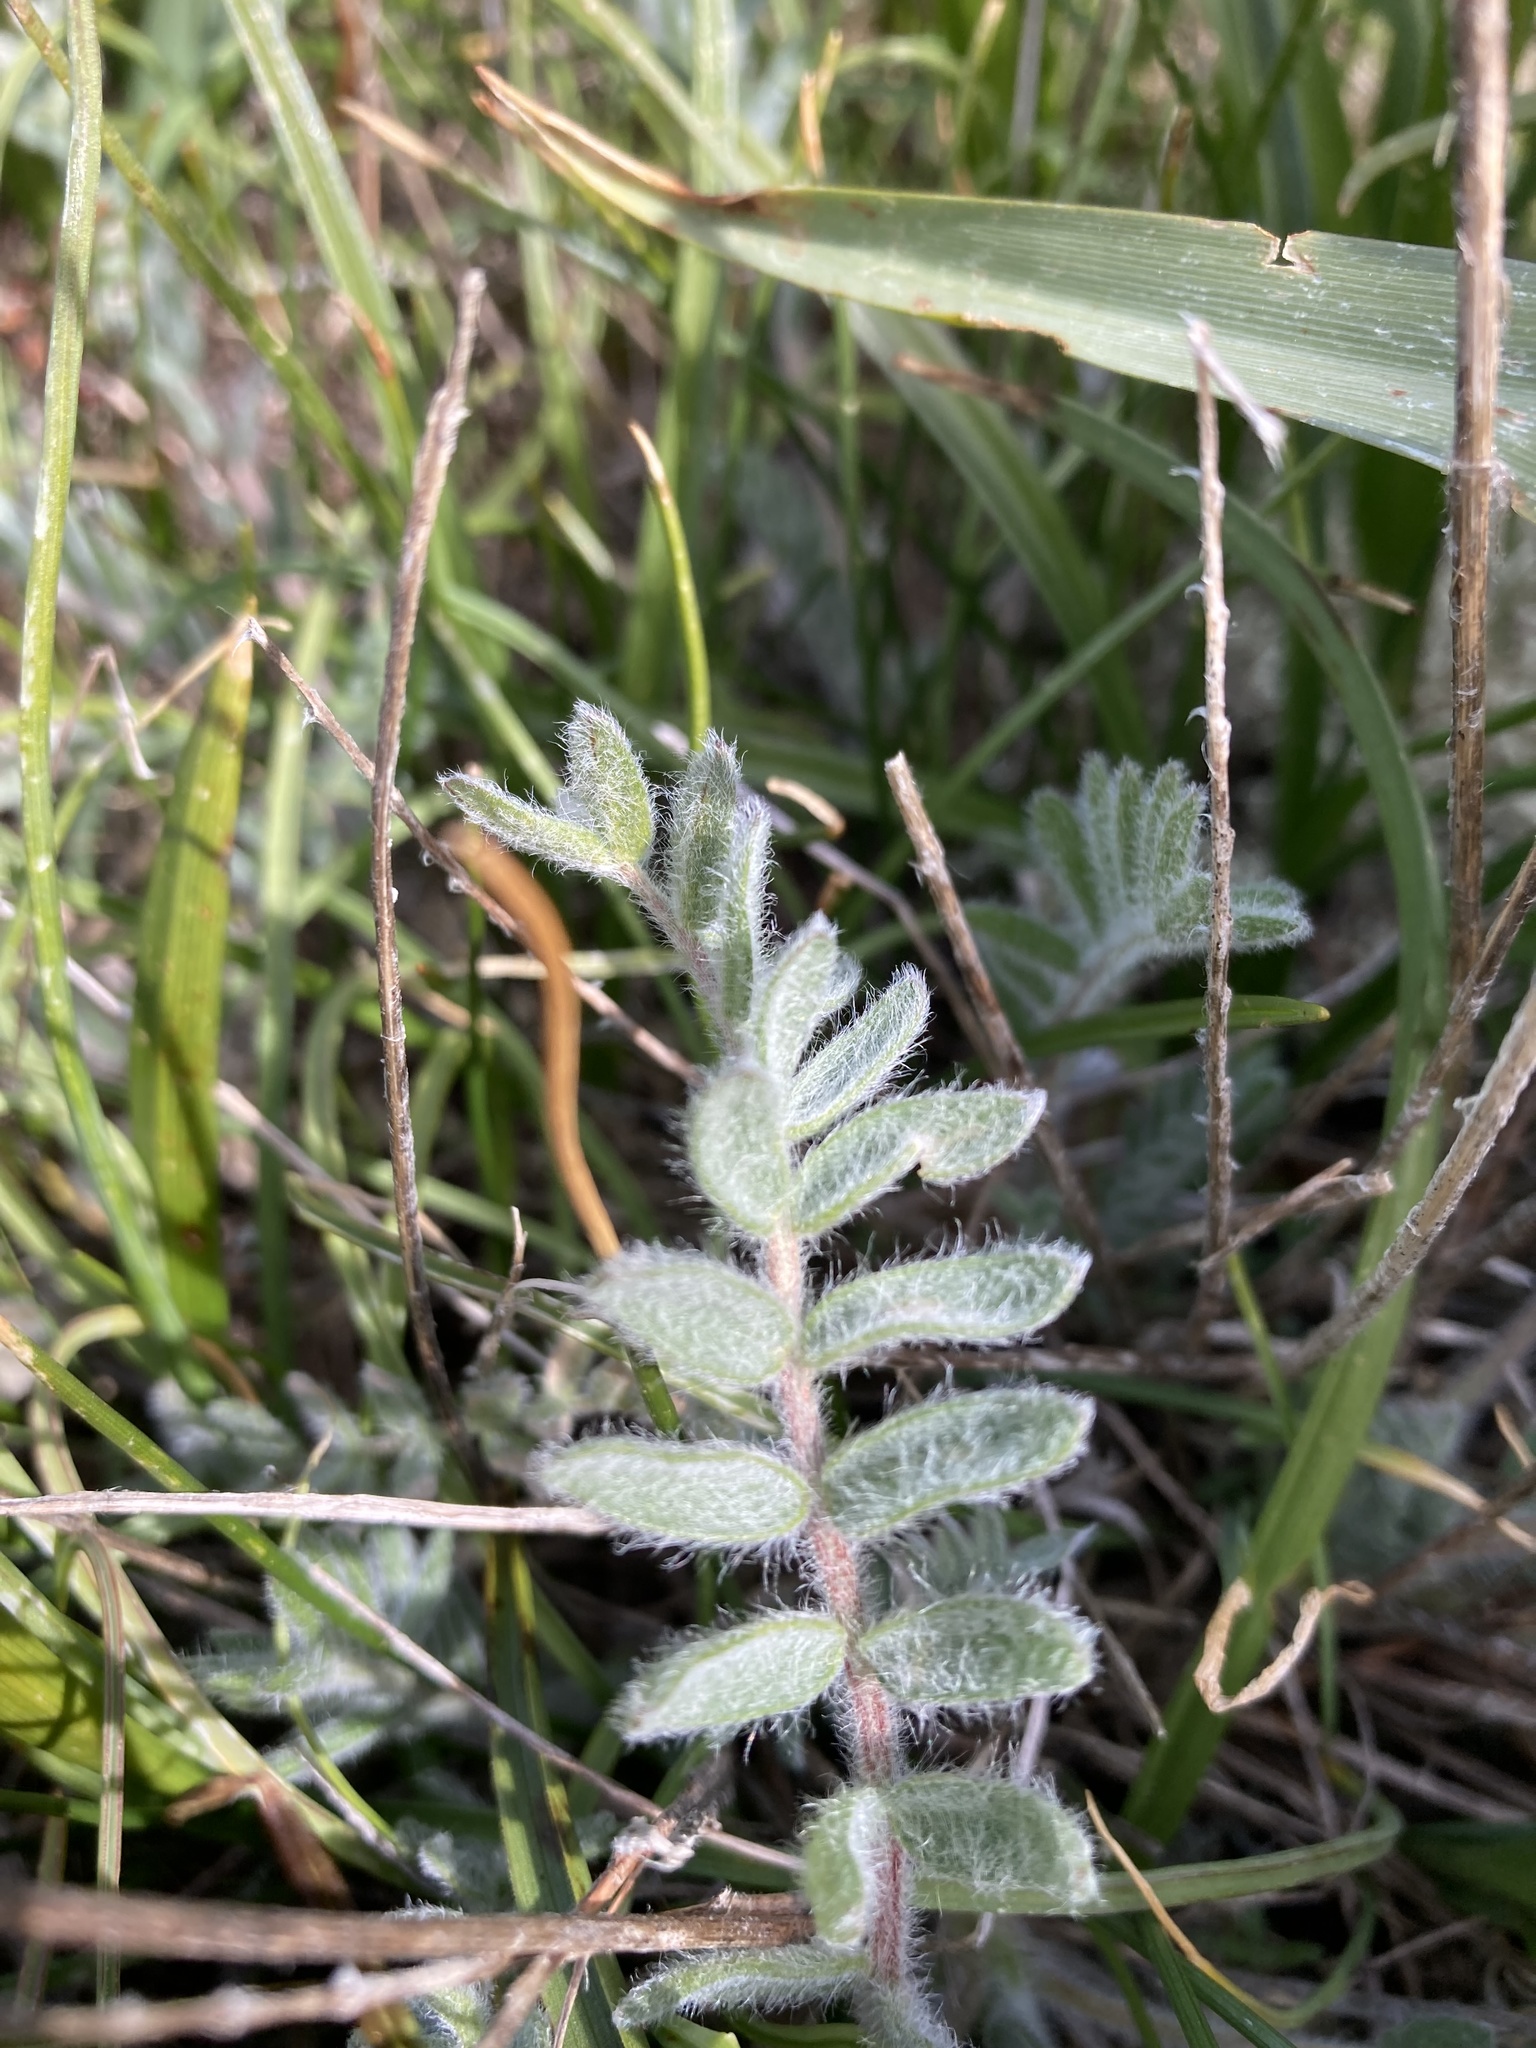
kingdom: Plantae
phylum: Tracheophyta
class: Magnoliopsida
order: Fabales
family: Fabaceae
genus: Oxytropis
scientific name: Oxytropis campestris
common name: Field locoweed
